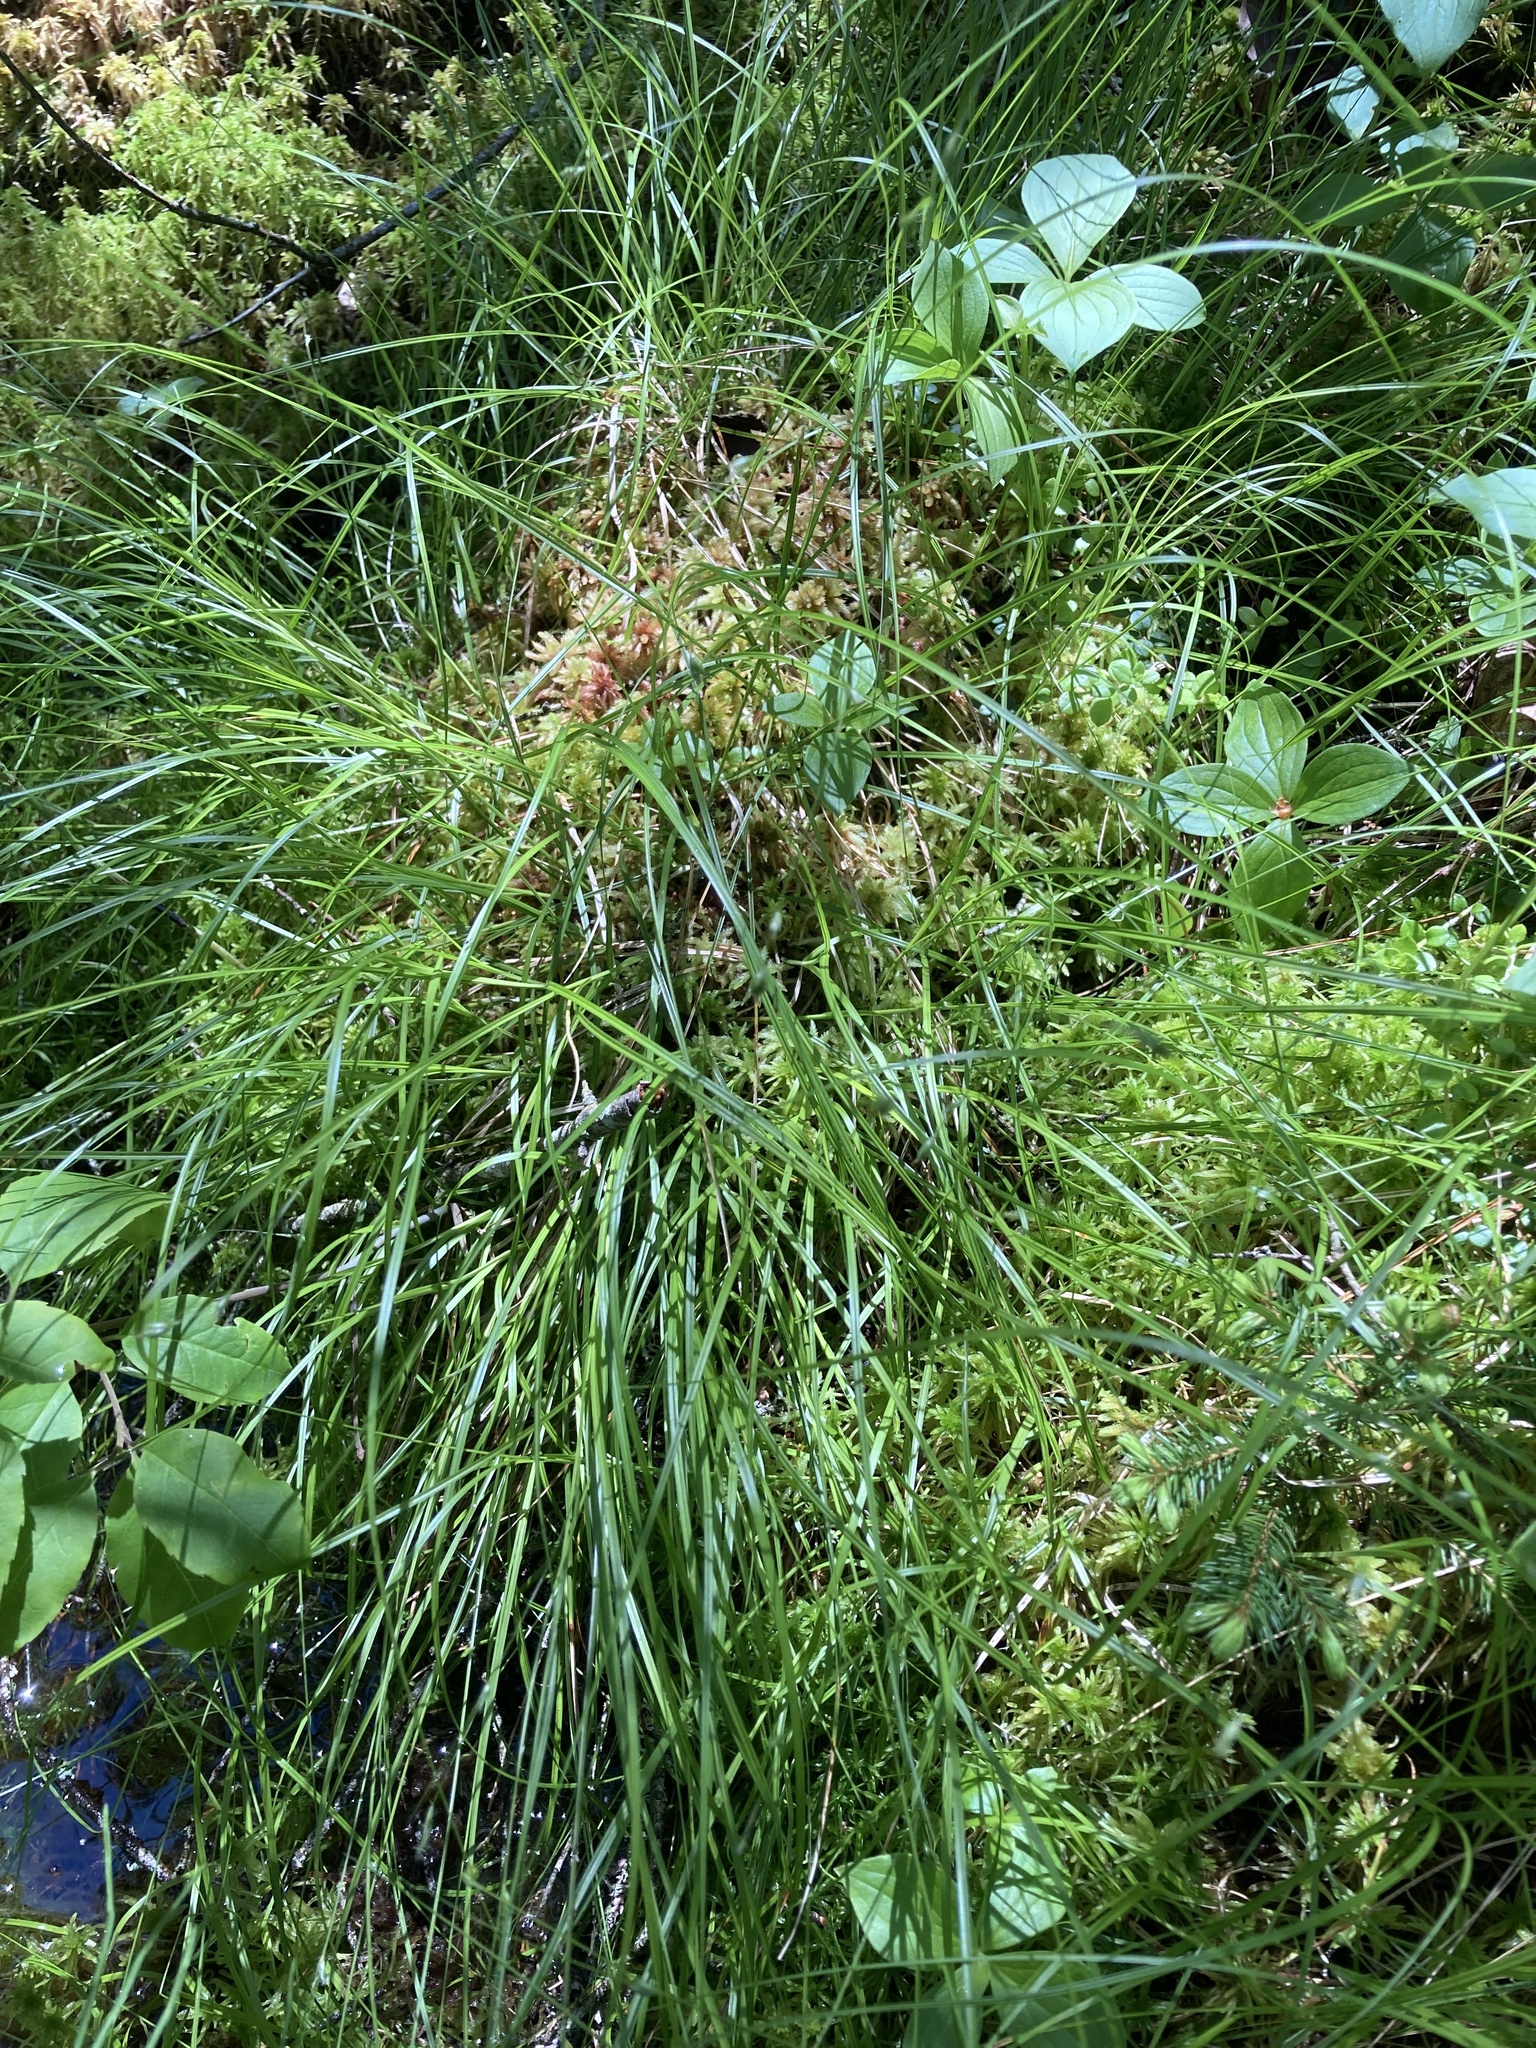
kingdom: Plantae
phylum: Tracheophyta
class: Liliopsida
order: Poales
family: Cyperaceae
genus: Carex
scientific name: Carex trisperma
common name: Three-seeded sedge
